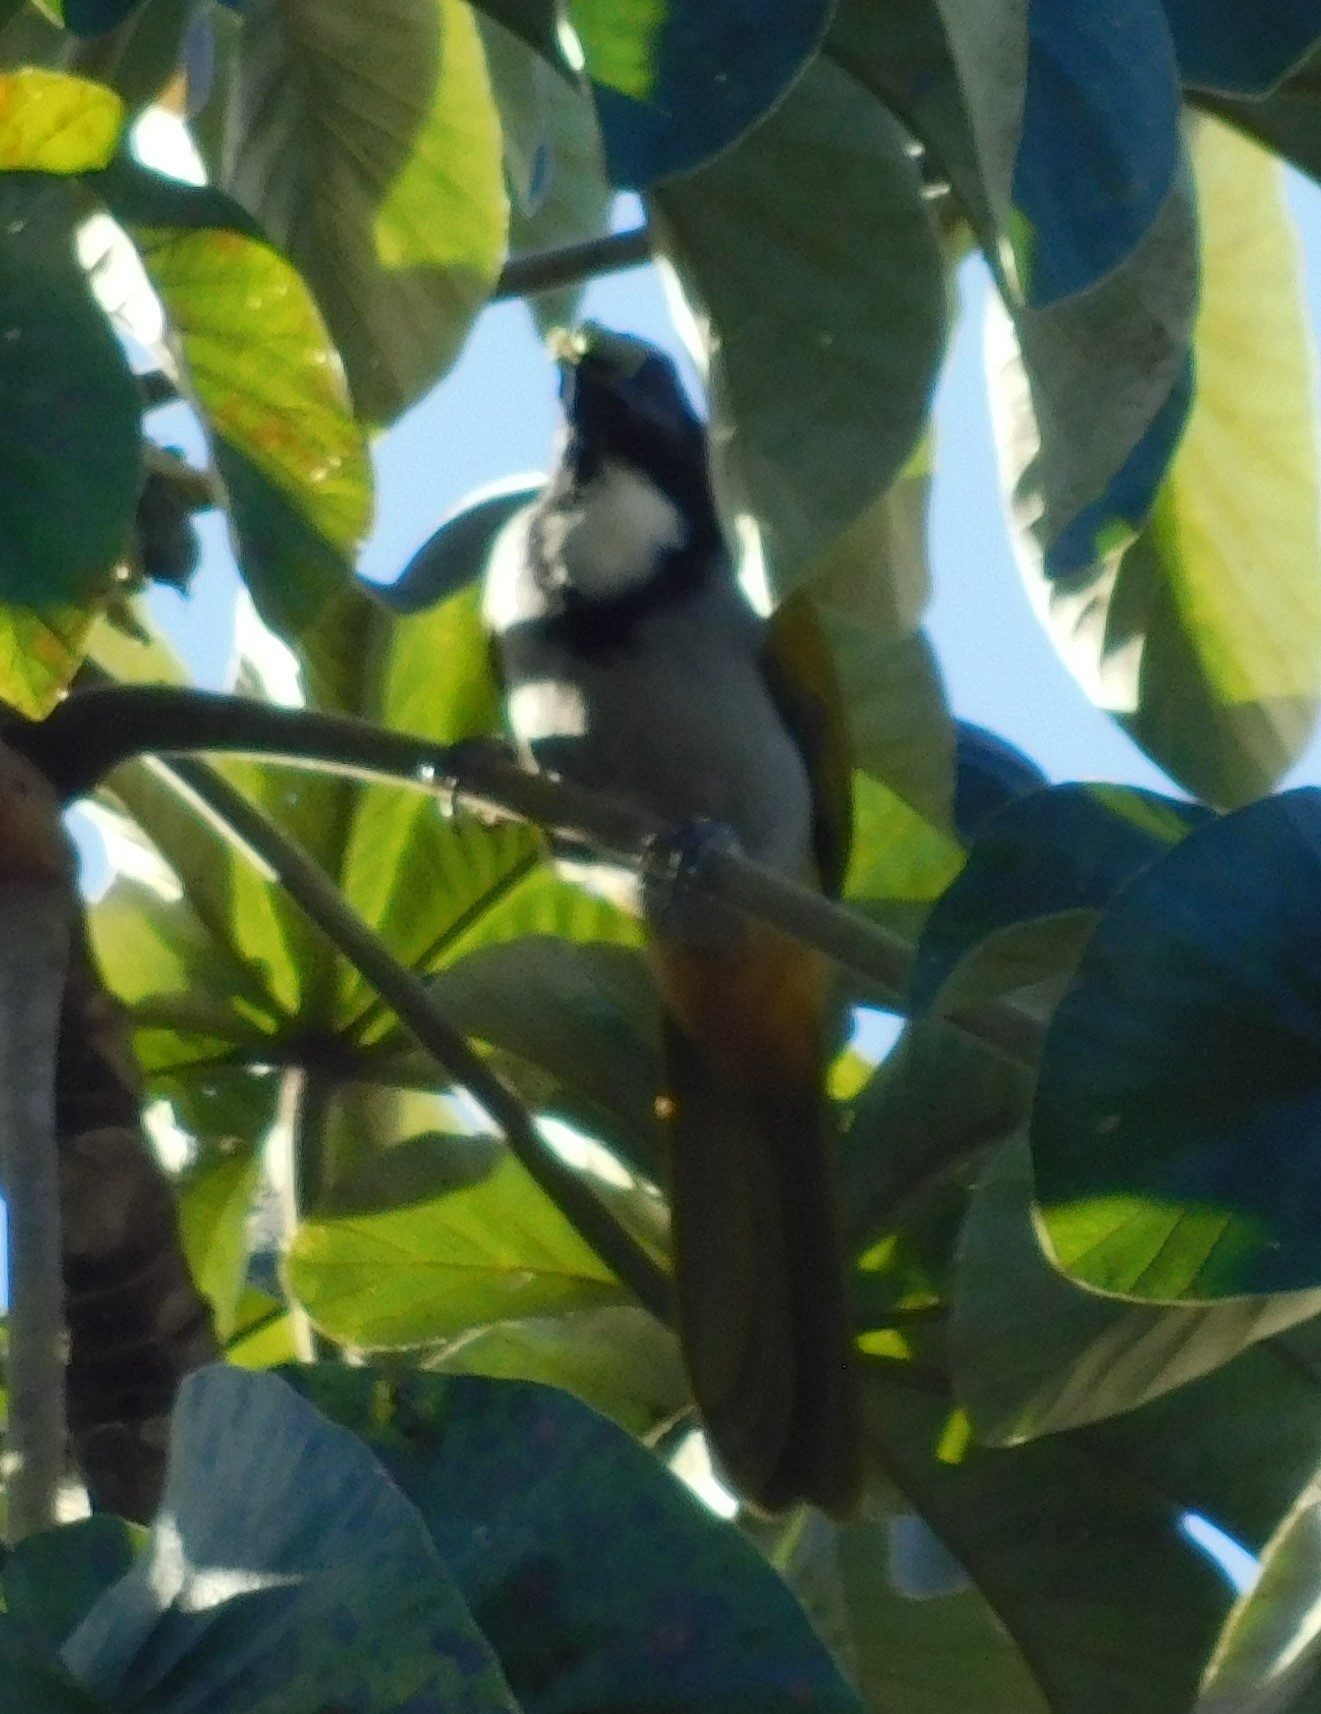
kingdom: Animalia
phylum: Chordata
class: Aves
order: Passeriformes
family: Thraupidae
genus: Saltator
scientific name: Saltator atriceps
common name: Black-headed saltator
